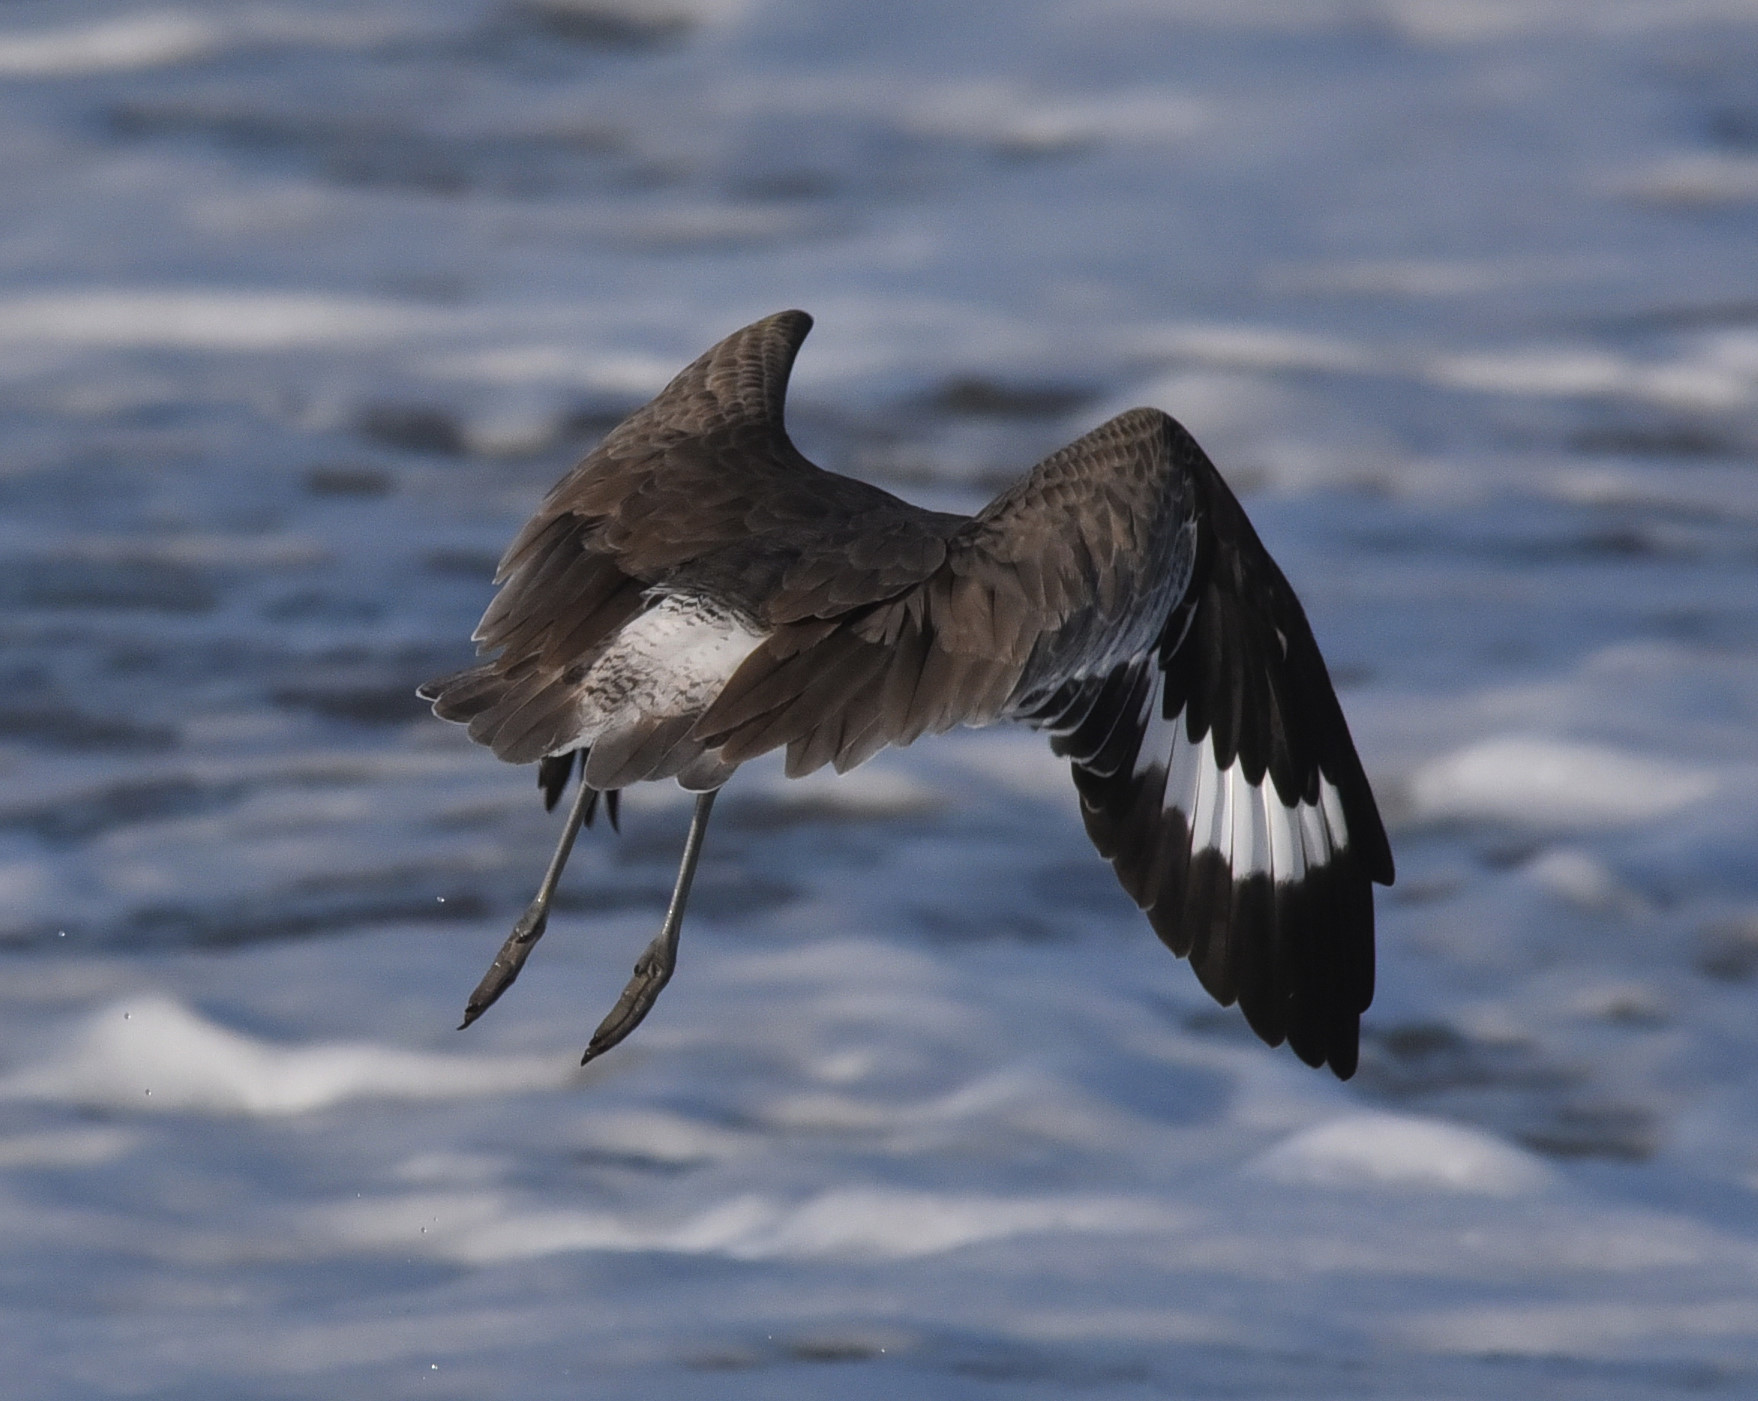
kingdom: Animalia
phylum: Chordata
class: Aves
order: Charadriiformes
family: Scolopacidae
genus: Tringa
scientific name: Tringa semipalmata
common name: Willet
